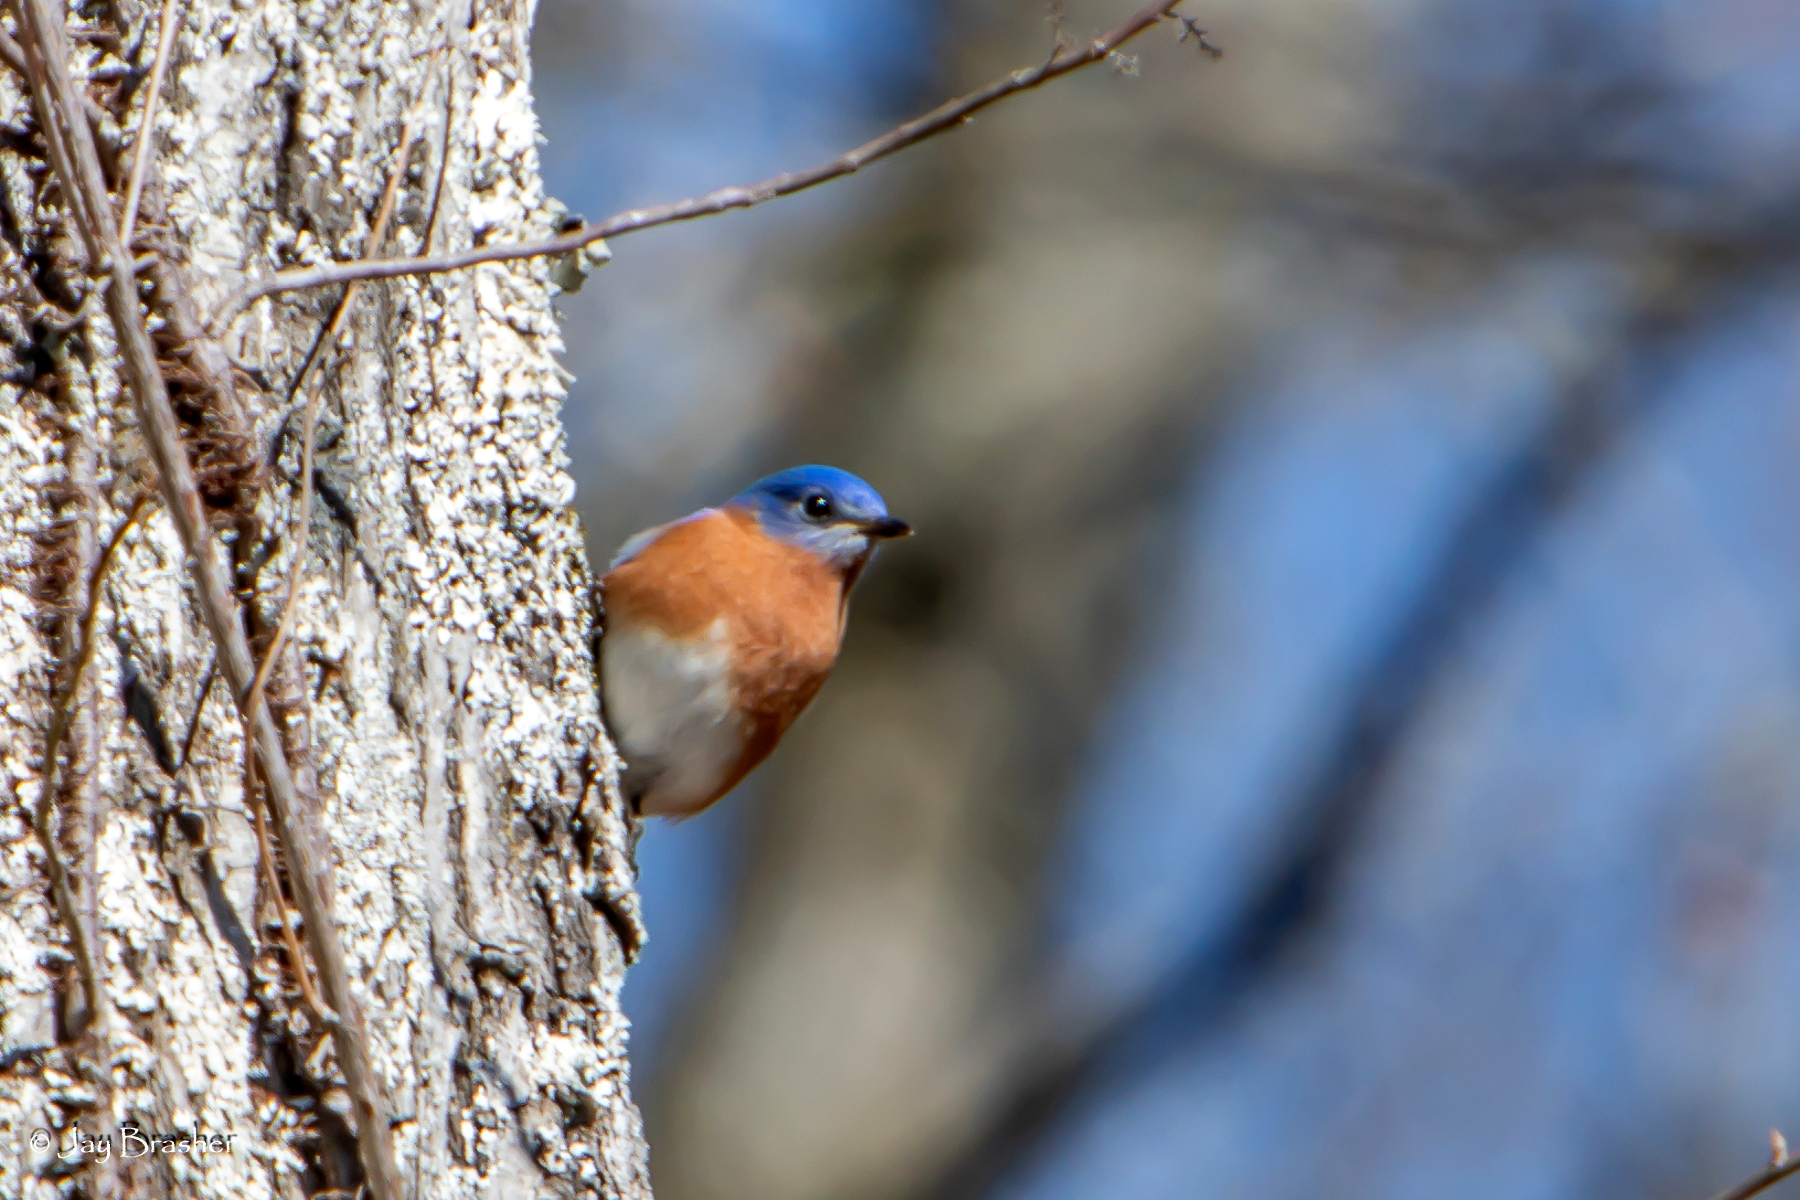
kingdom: Animalia
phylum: Chordata
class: Aves
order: Passeriformes
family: Turdidae
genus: Sialia
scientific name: Sialia sialis
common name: Eastern bluebird
